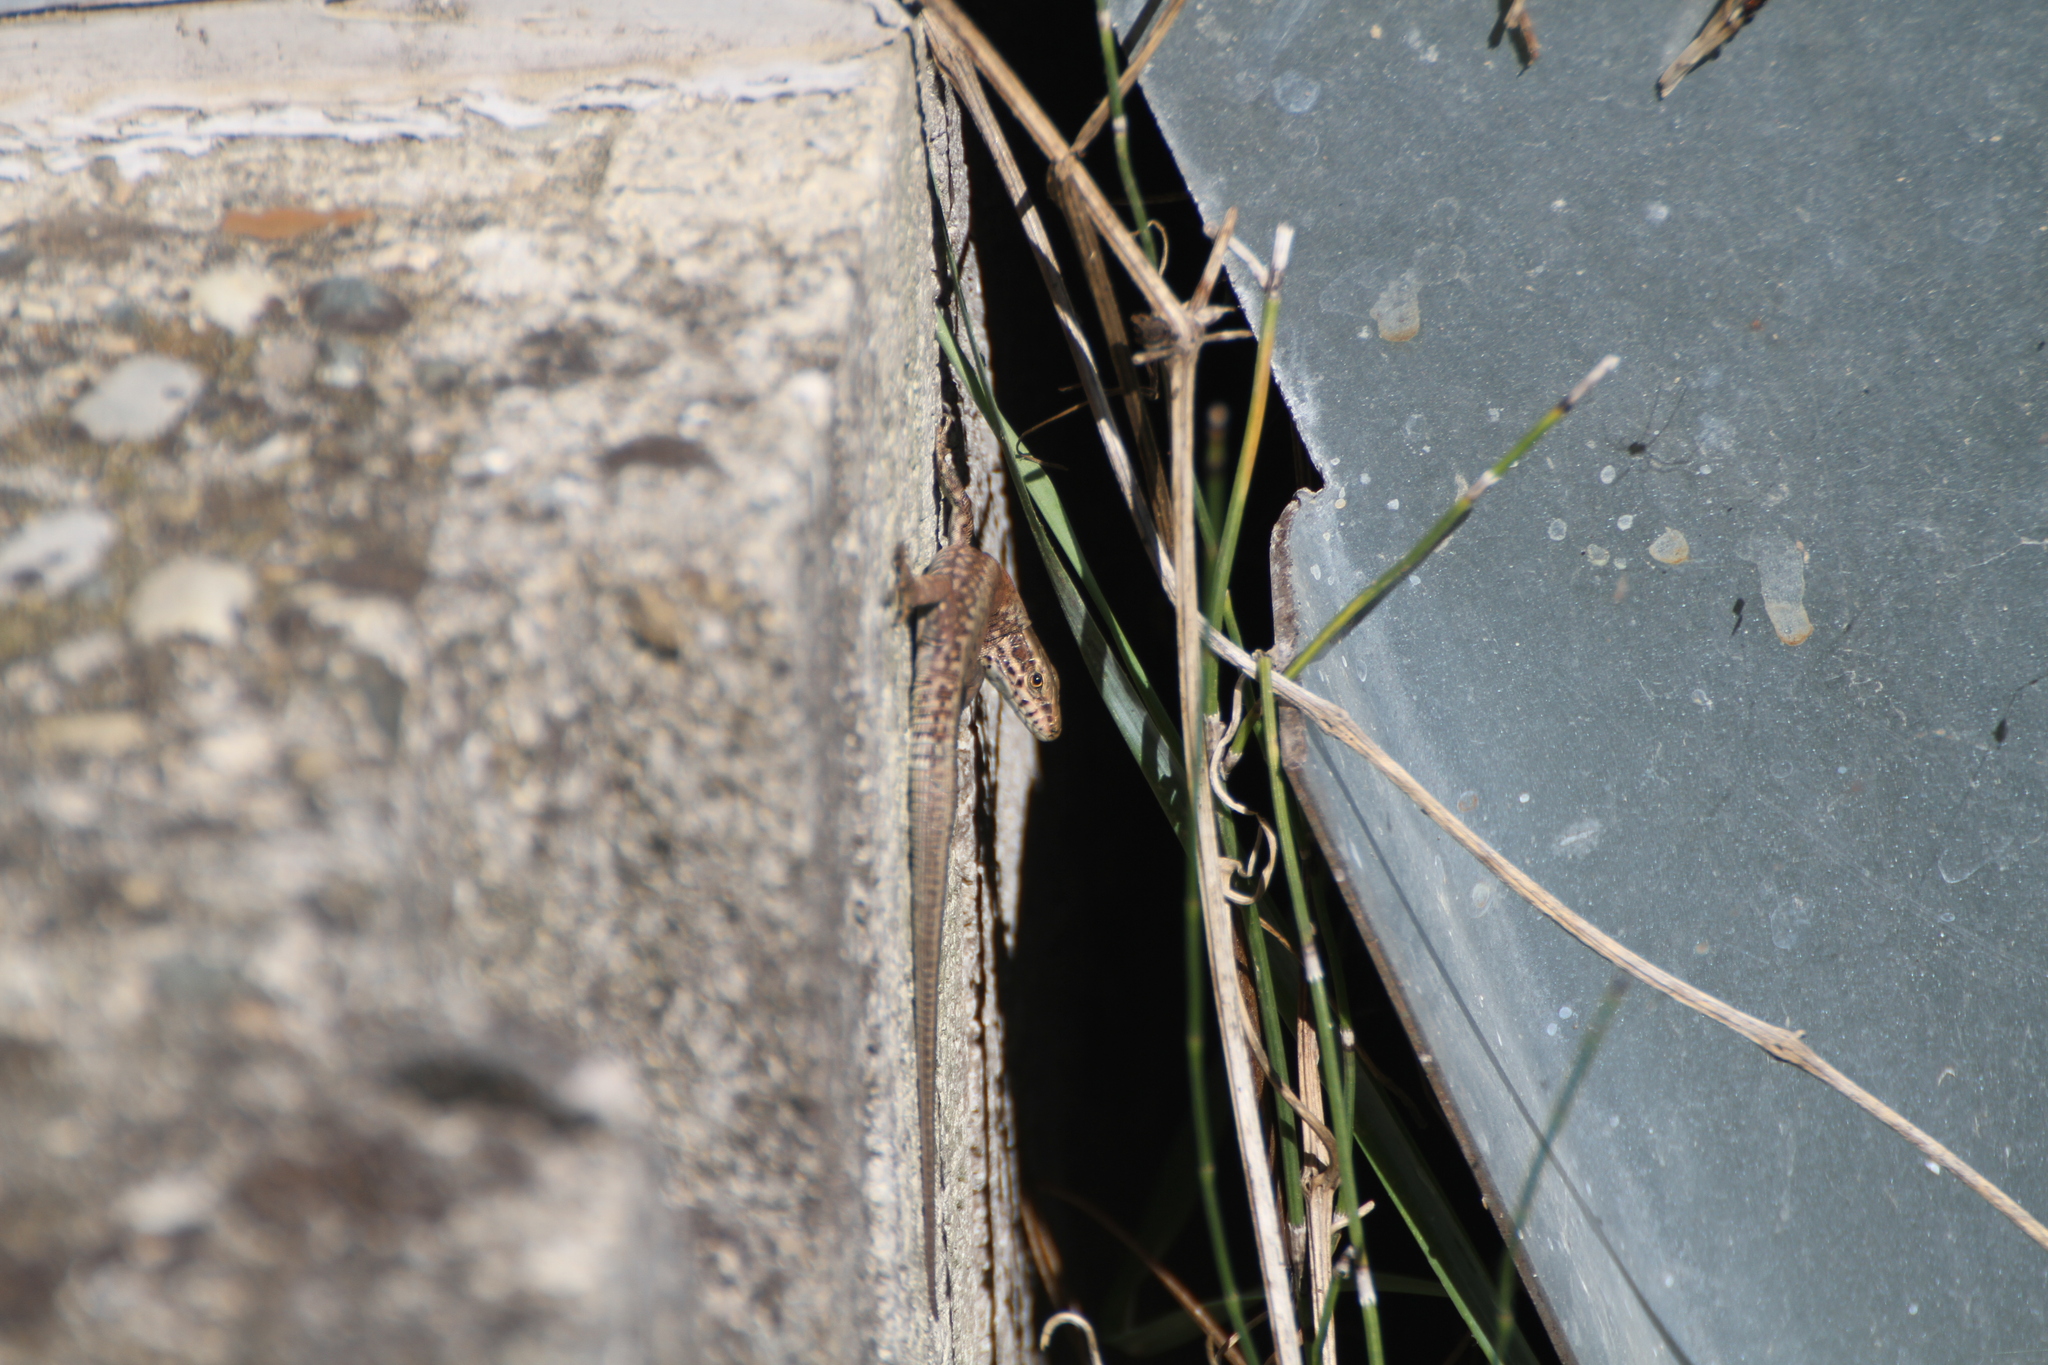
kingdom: Animalia
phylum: Chordata
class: Squamata
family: Lacertidae
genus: Podarcis
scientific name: Podarcis muralis
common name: Common wall lizard
